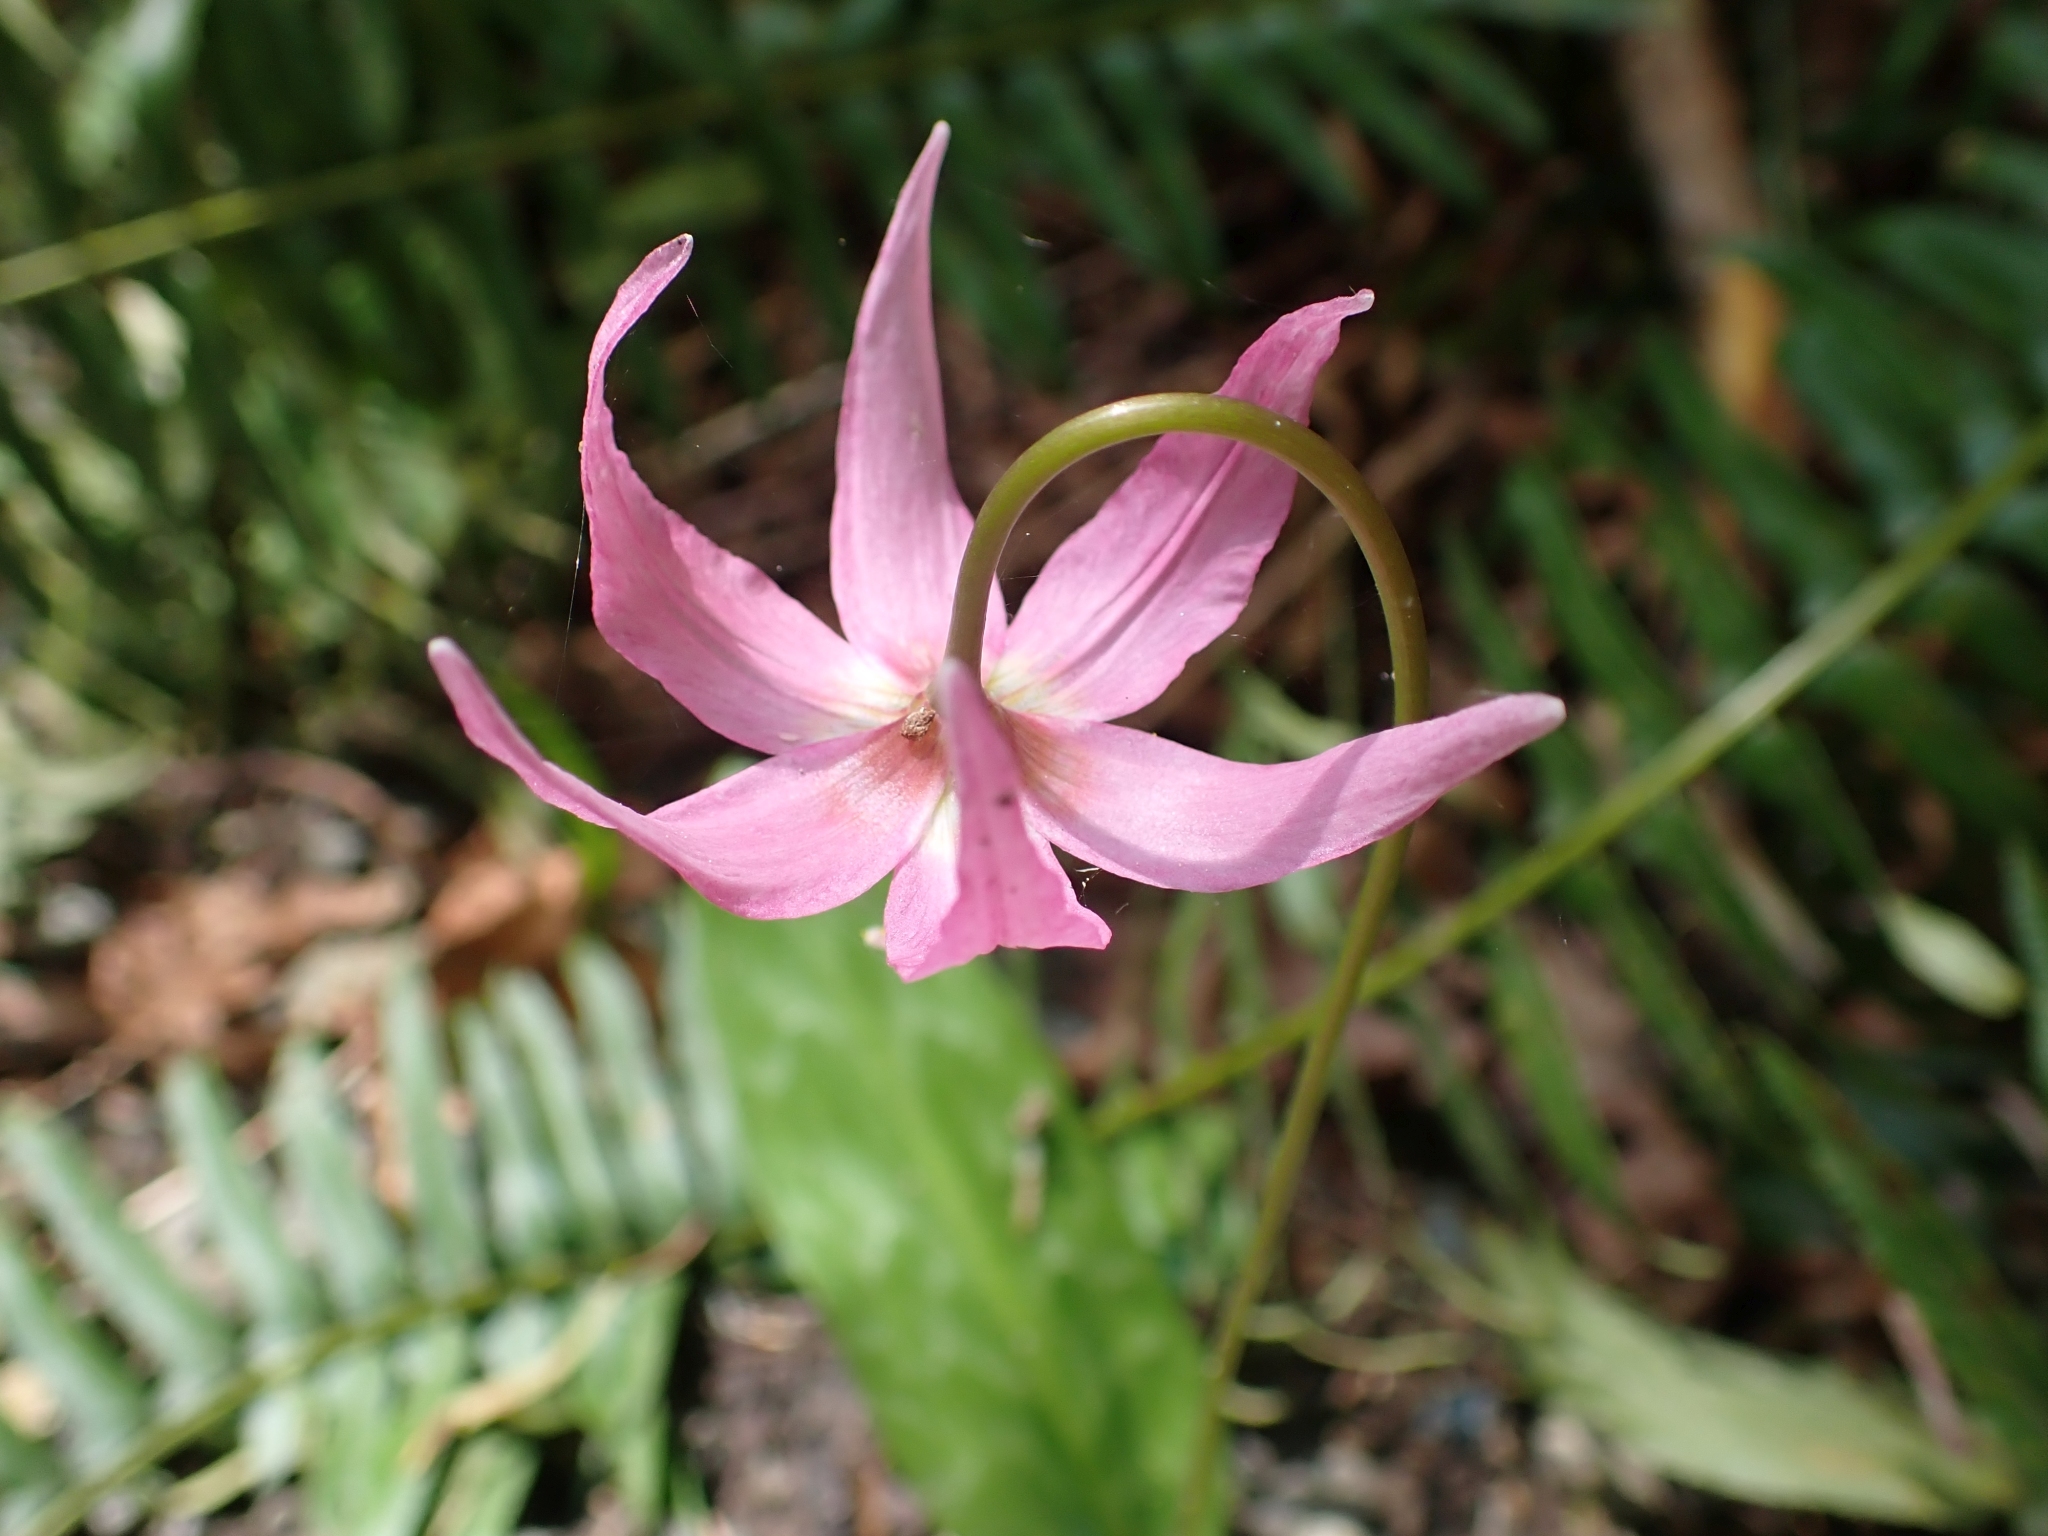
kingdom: Plantae
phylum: Tracheophyta
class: Liliopsida
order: Liliales
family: Liliaceae
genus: Erythronium
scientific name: Erythronium revolutum
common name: Pink fawn-lily
